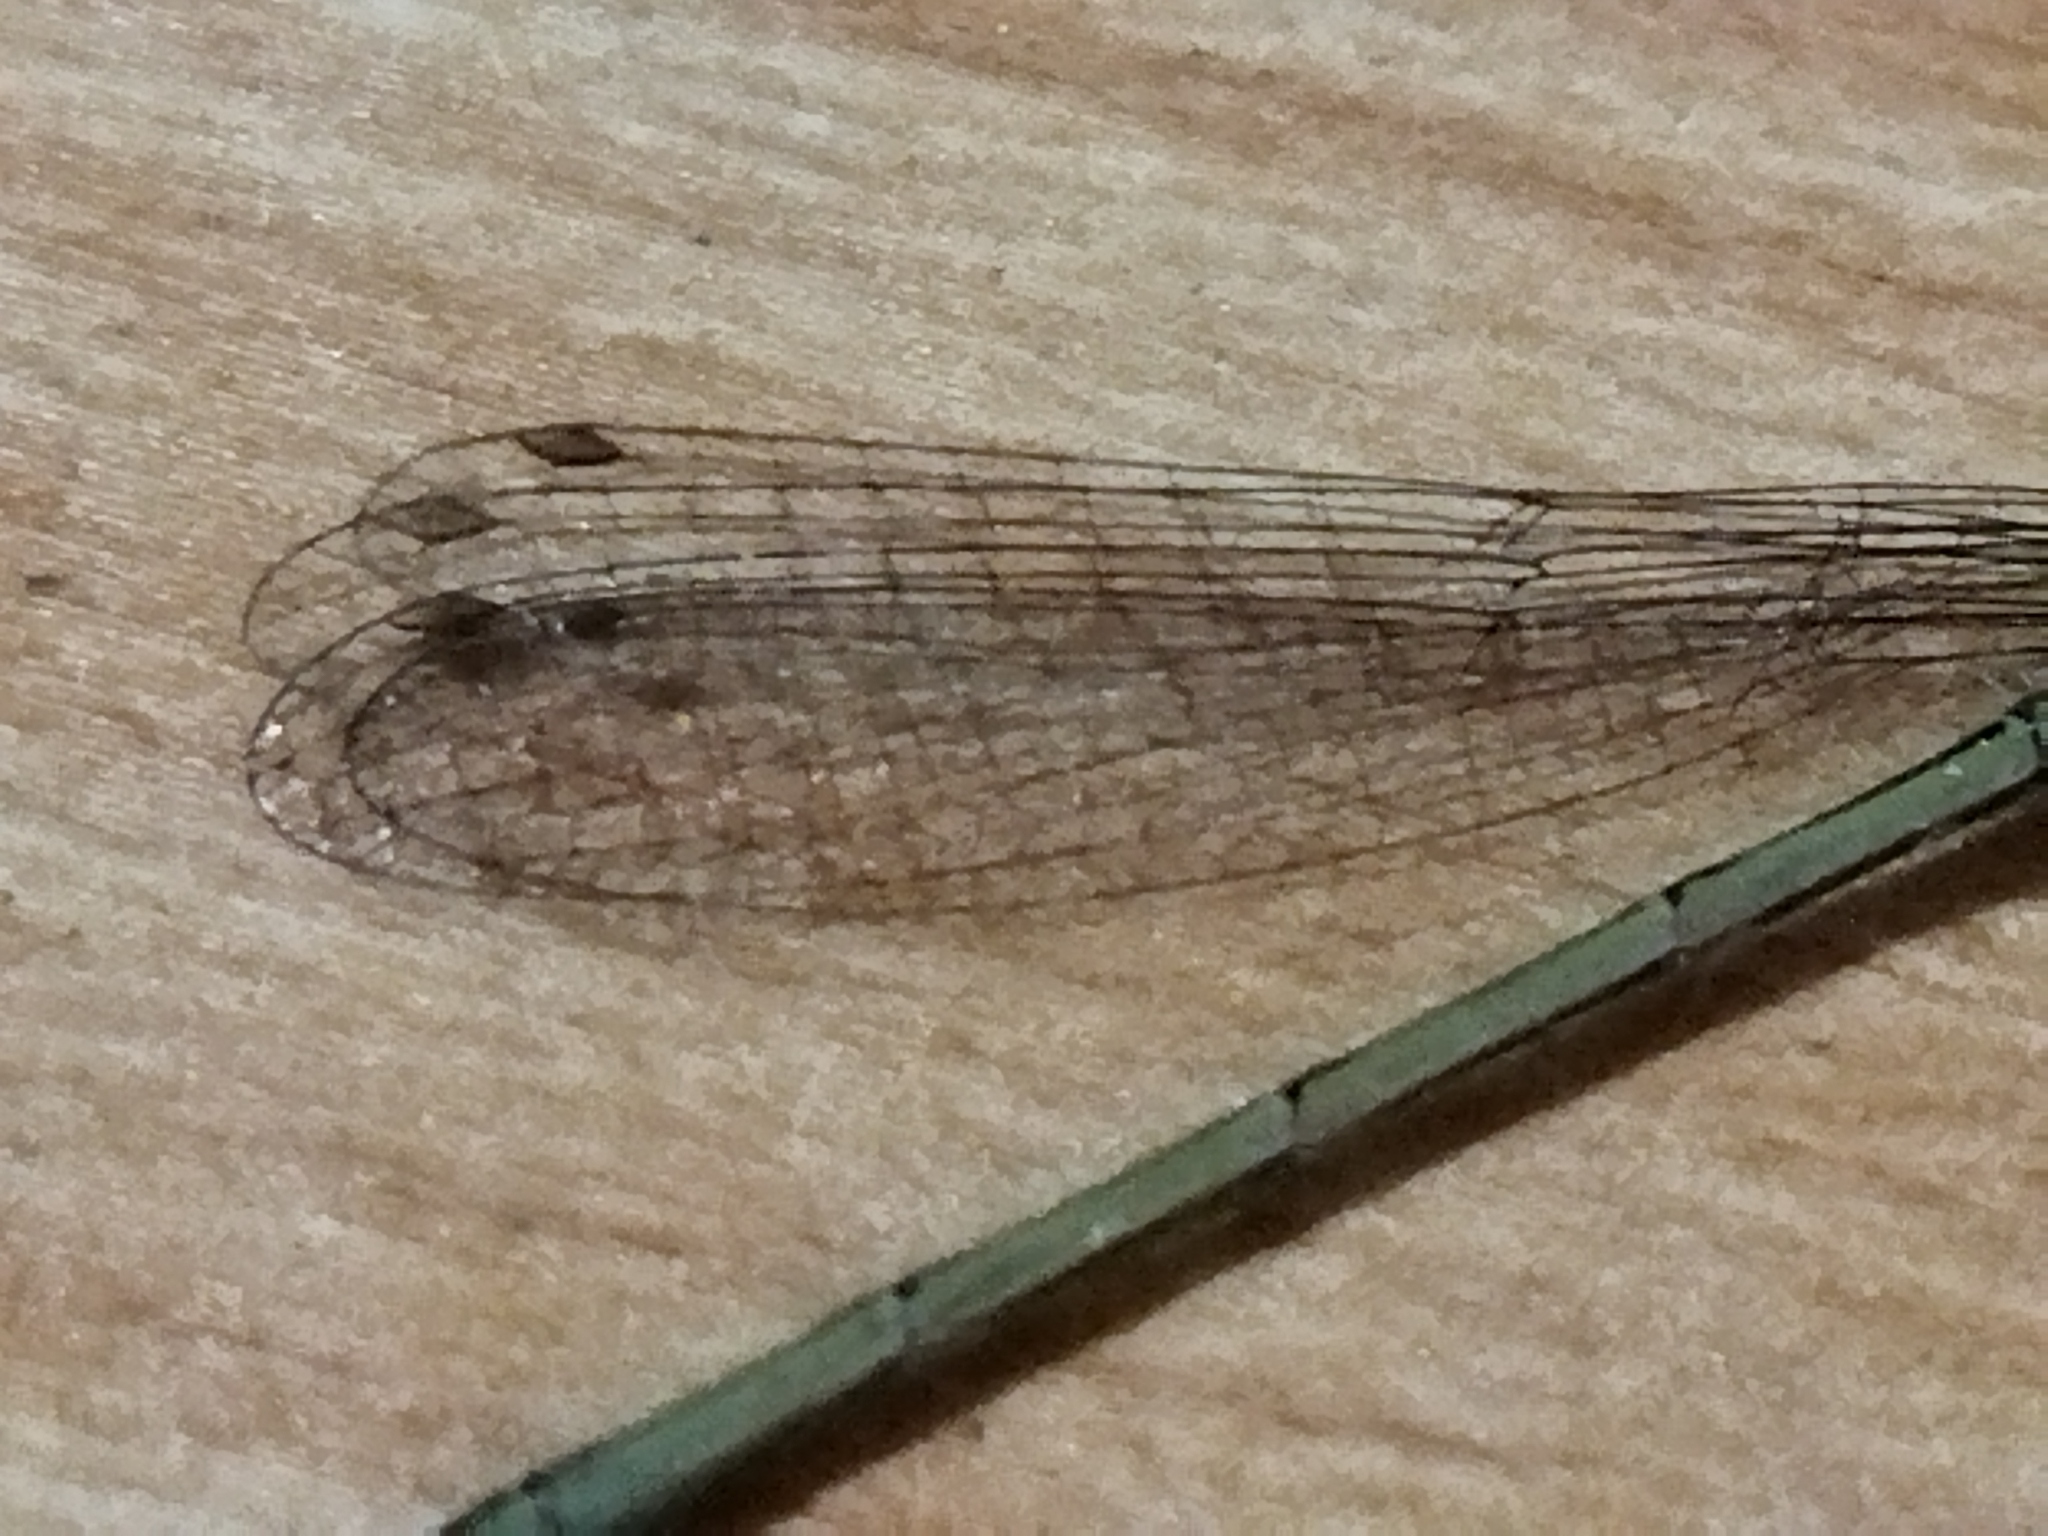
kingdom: Animalia
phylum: Arthropoda
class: Insecta
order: Odonata
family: Coenagrionidae
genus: Ischnura
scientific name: Ischnura elegans
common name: Blue-tailed damselfly
